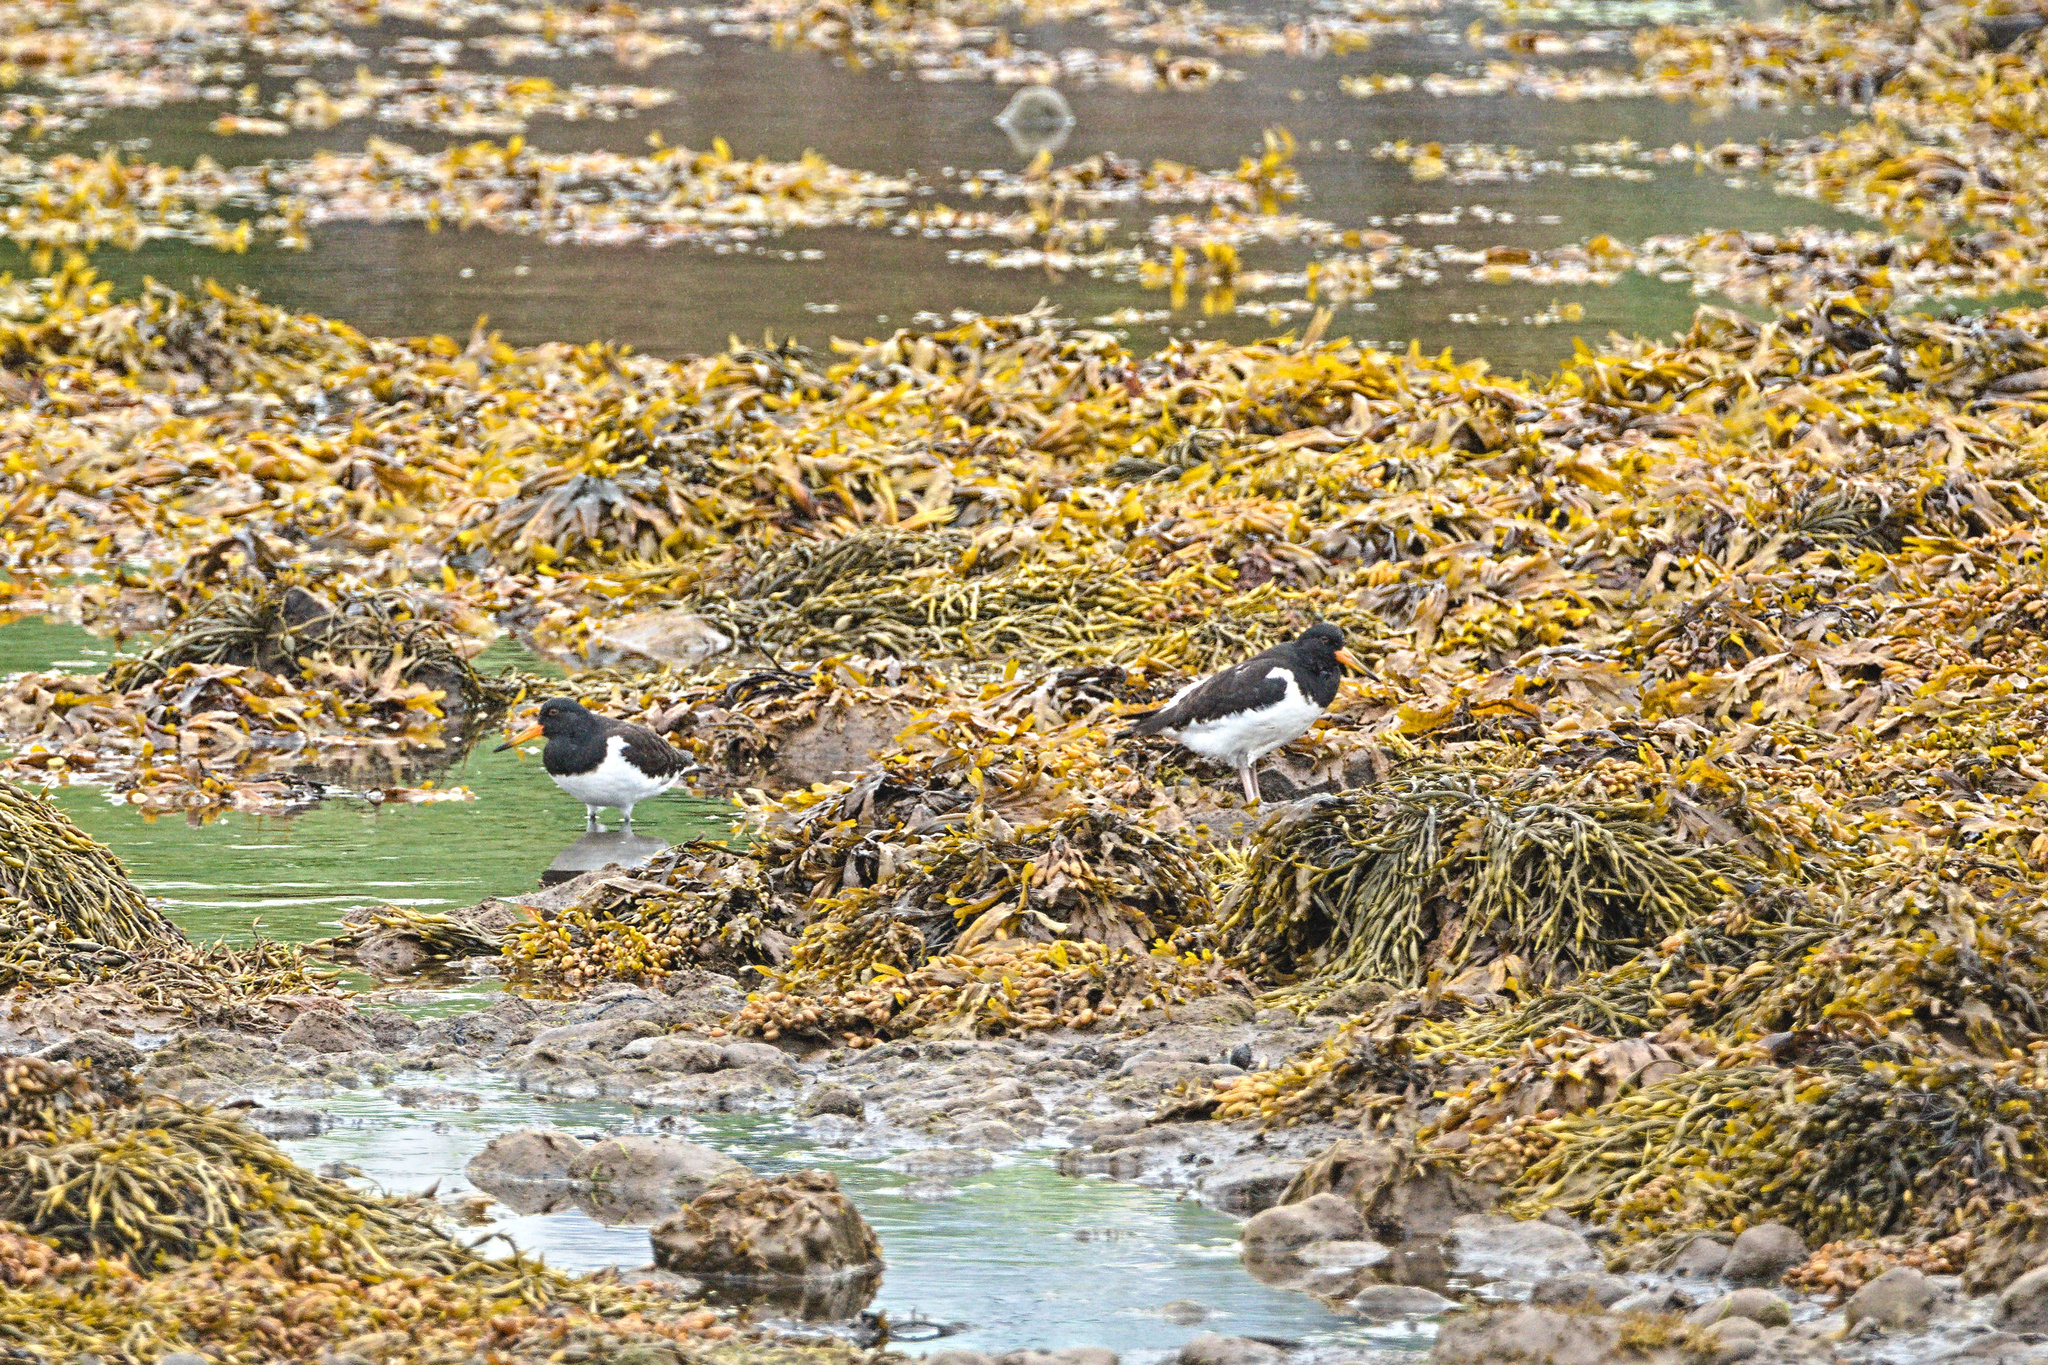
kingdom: Animalia
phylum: Chordata
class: Aves
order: Charadriiformes
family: Haematopodidae
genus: Haematopus
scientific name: Haematopus ostralegus
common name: Eurasian oystercatcher
